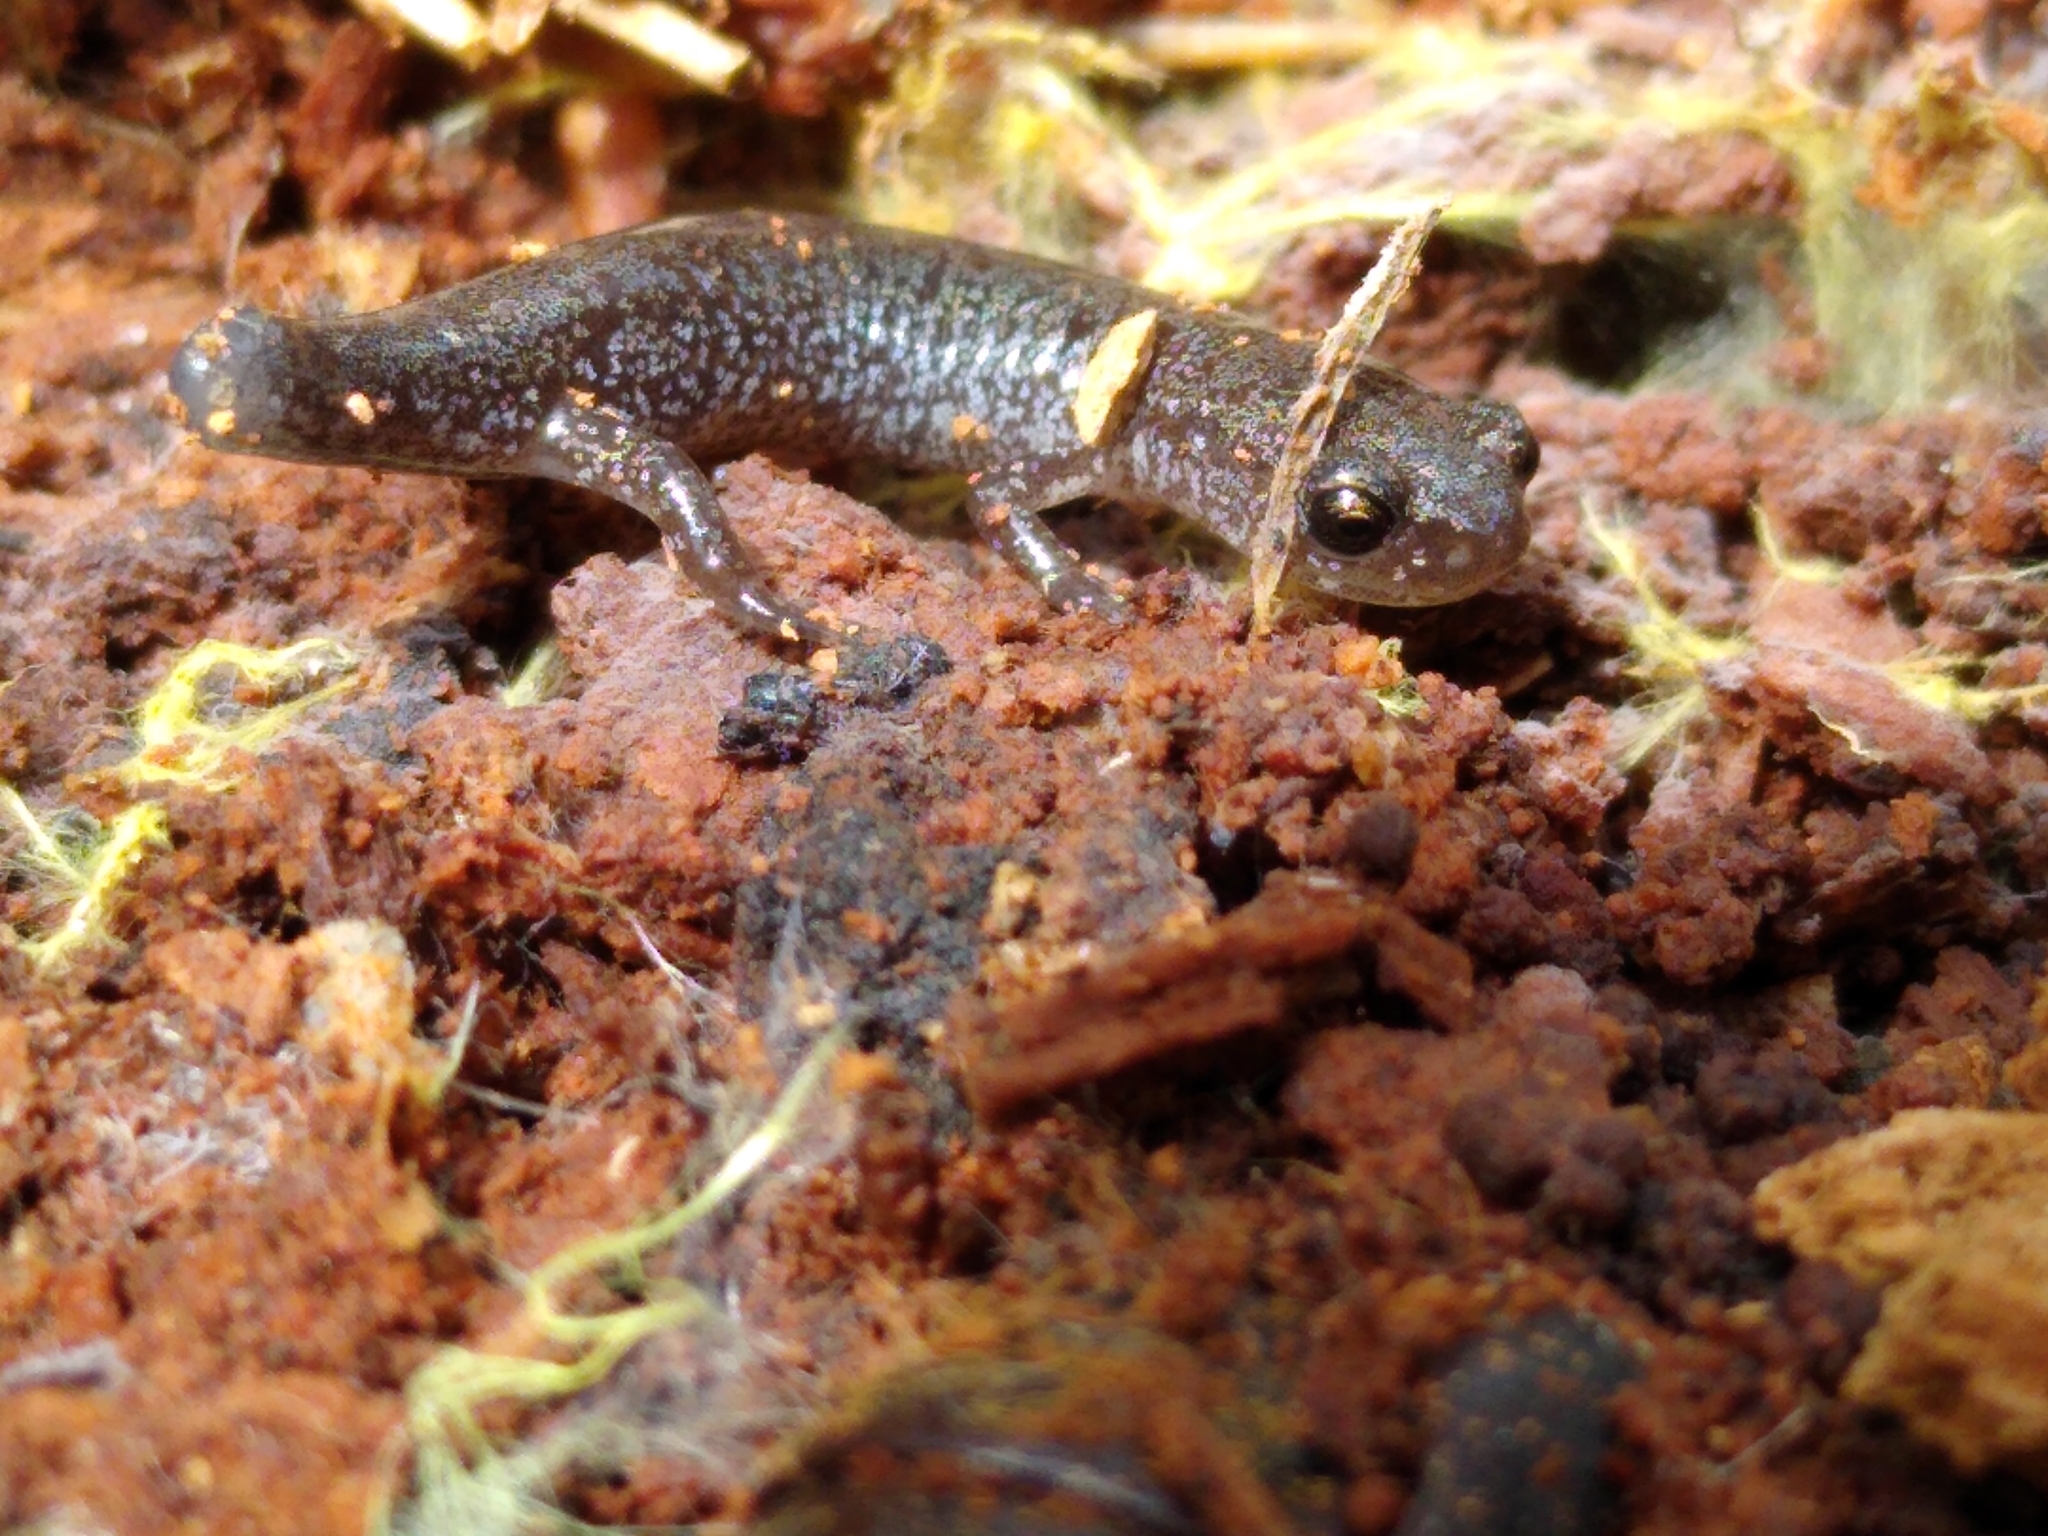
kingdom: Animalia
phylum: Chordata
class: Amphibia
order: Caudata
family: Plethodontidae
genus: Plethodon
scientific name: Plethodon cinereus
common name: Redback salamander
